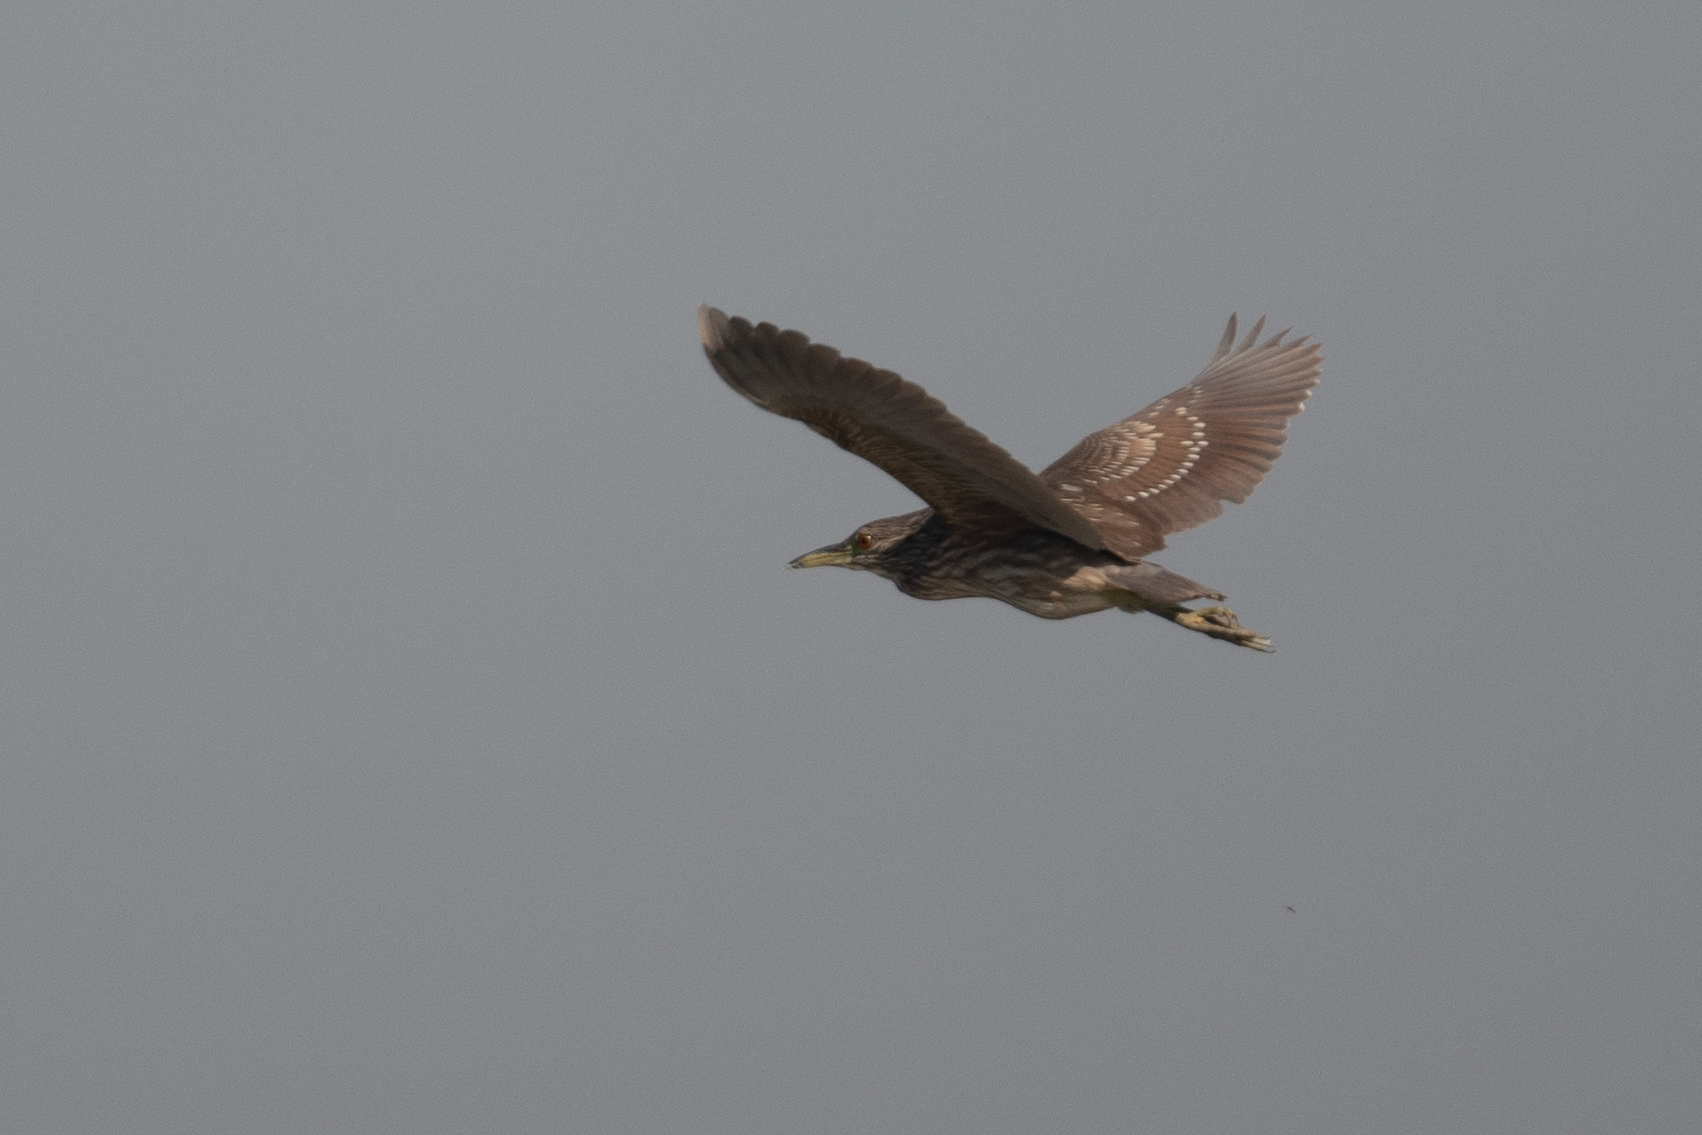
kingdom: Animalia
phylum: Chordata
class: Aves
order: Pelecaniformes
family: Ardeidae
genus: Nycticorax
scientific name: Nycticorax nycticorax
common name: Black-crowned night heron
